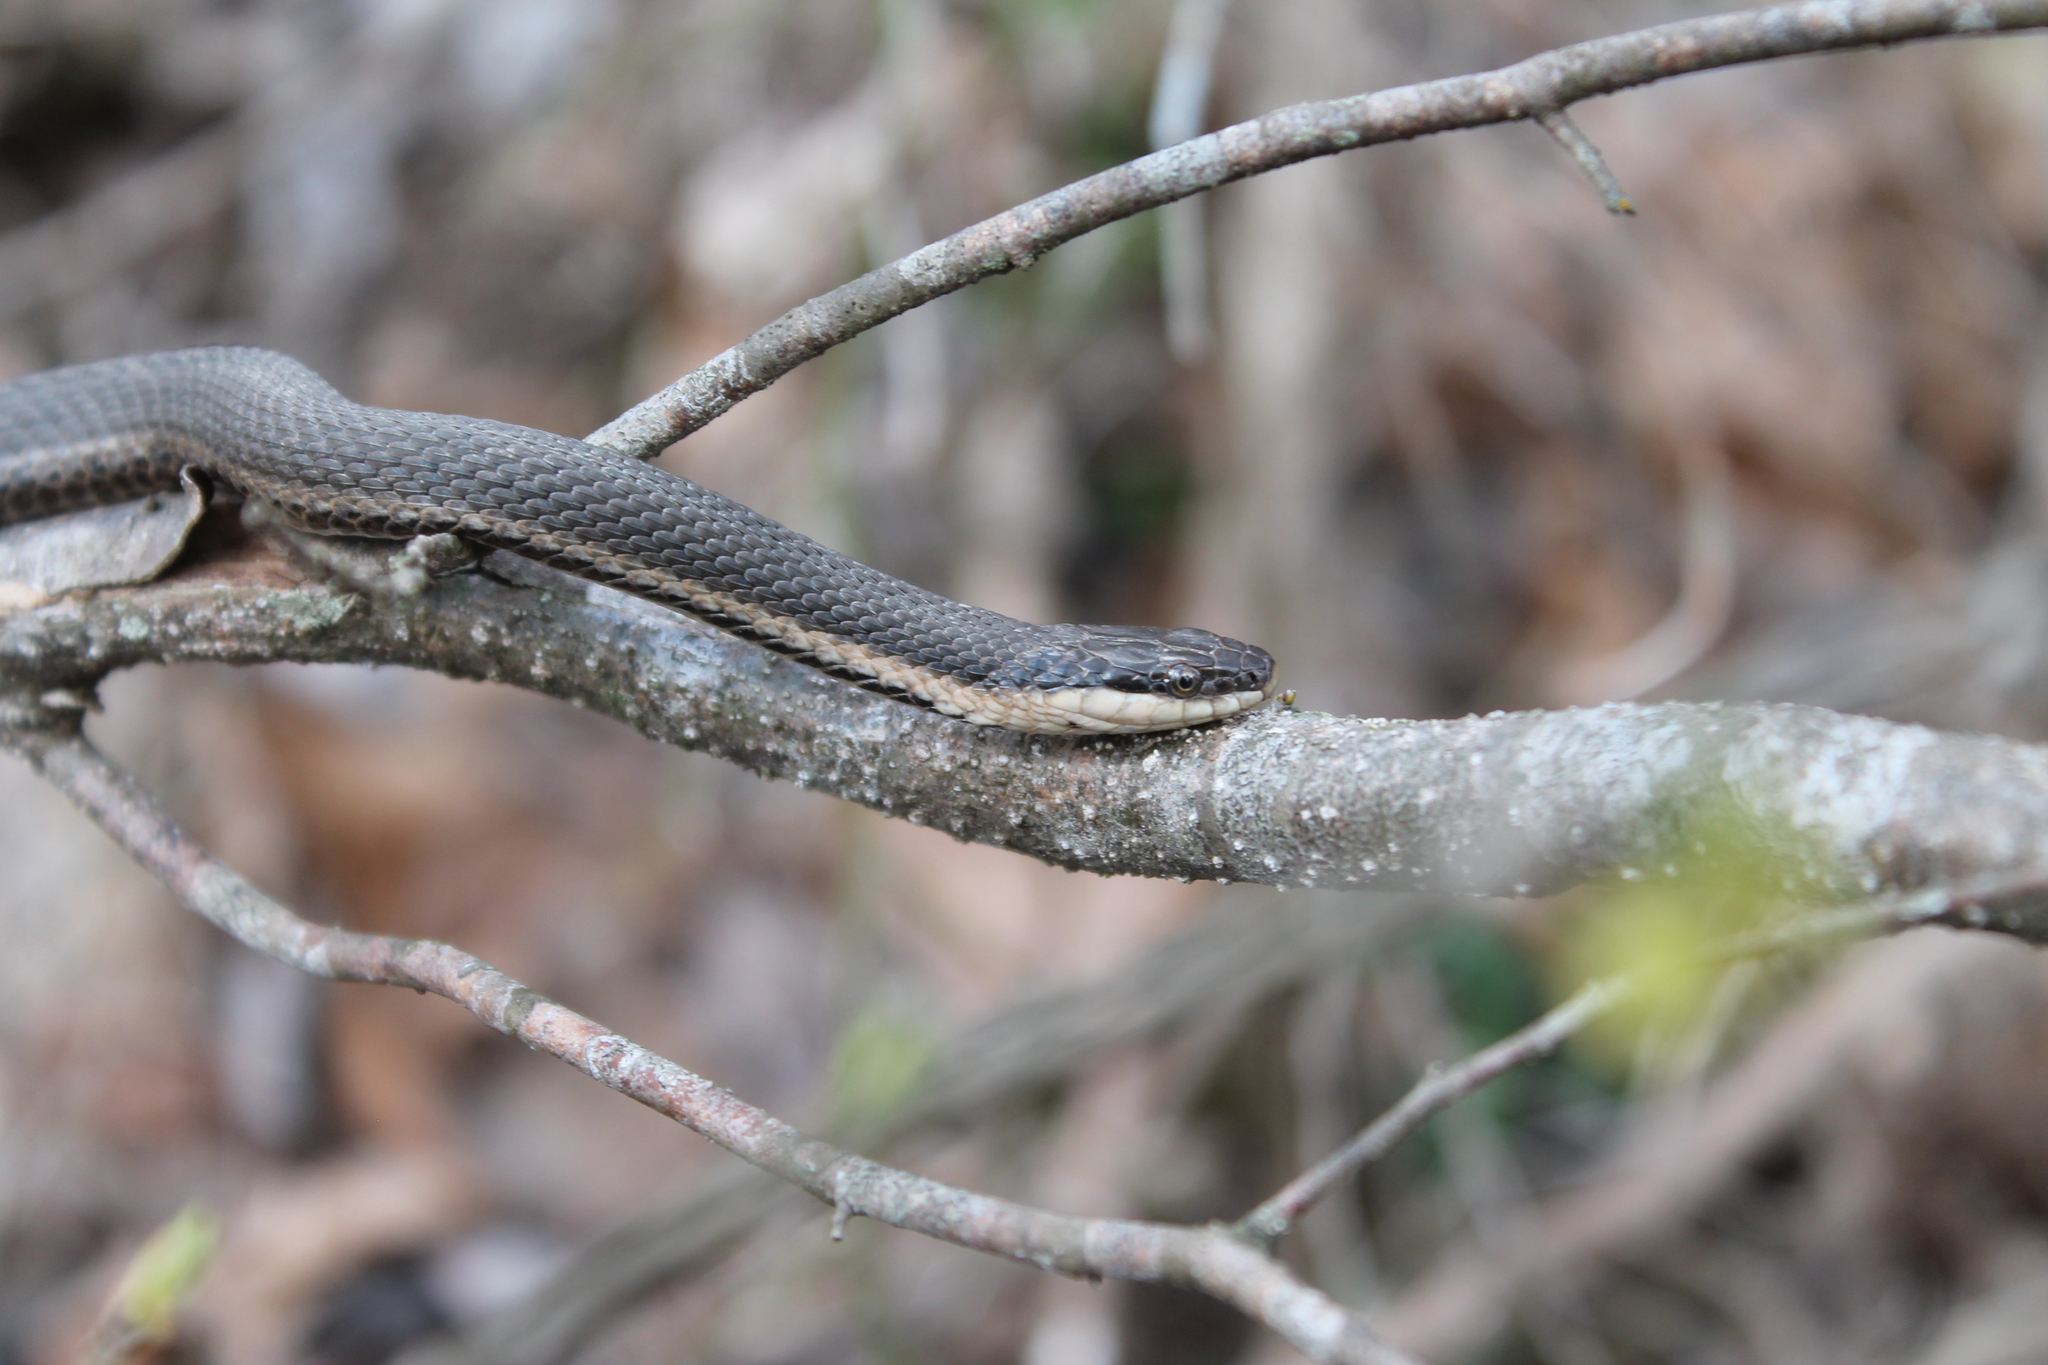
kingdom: Animalia
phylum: Chordata
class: Squamata
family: Colubridae
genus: Regina
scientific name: Regina septemvittata
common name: Queen snake
